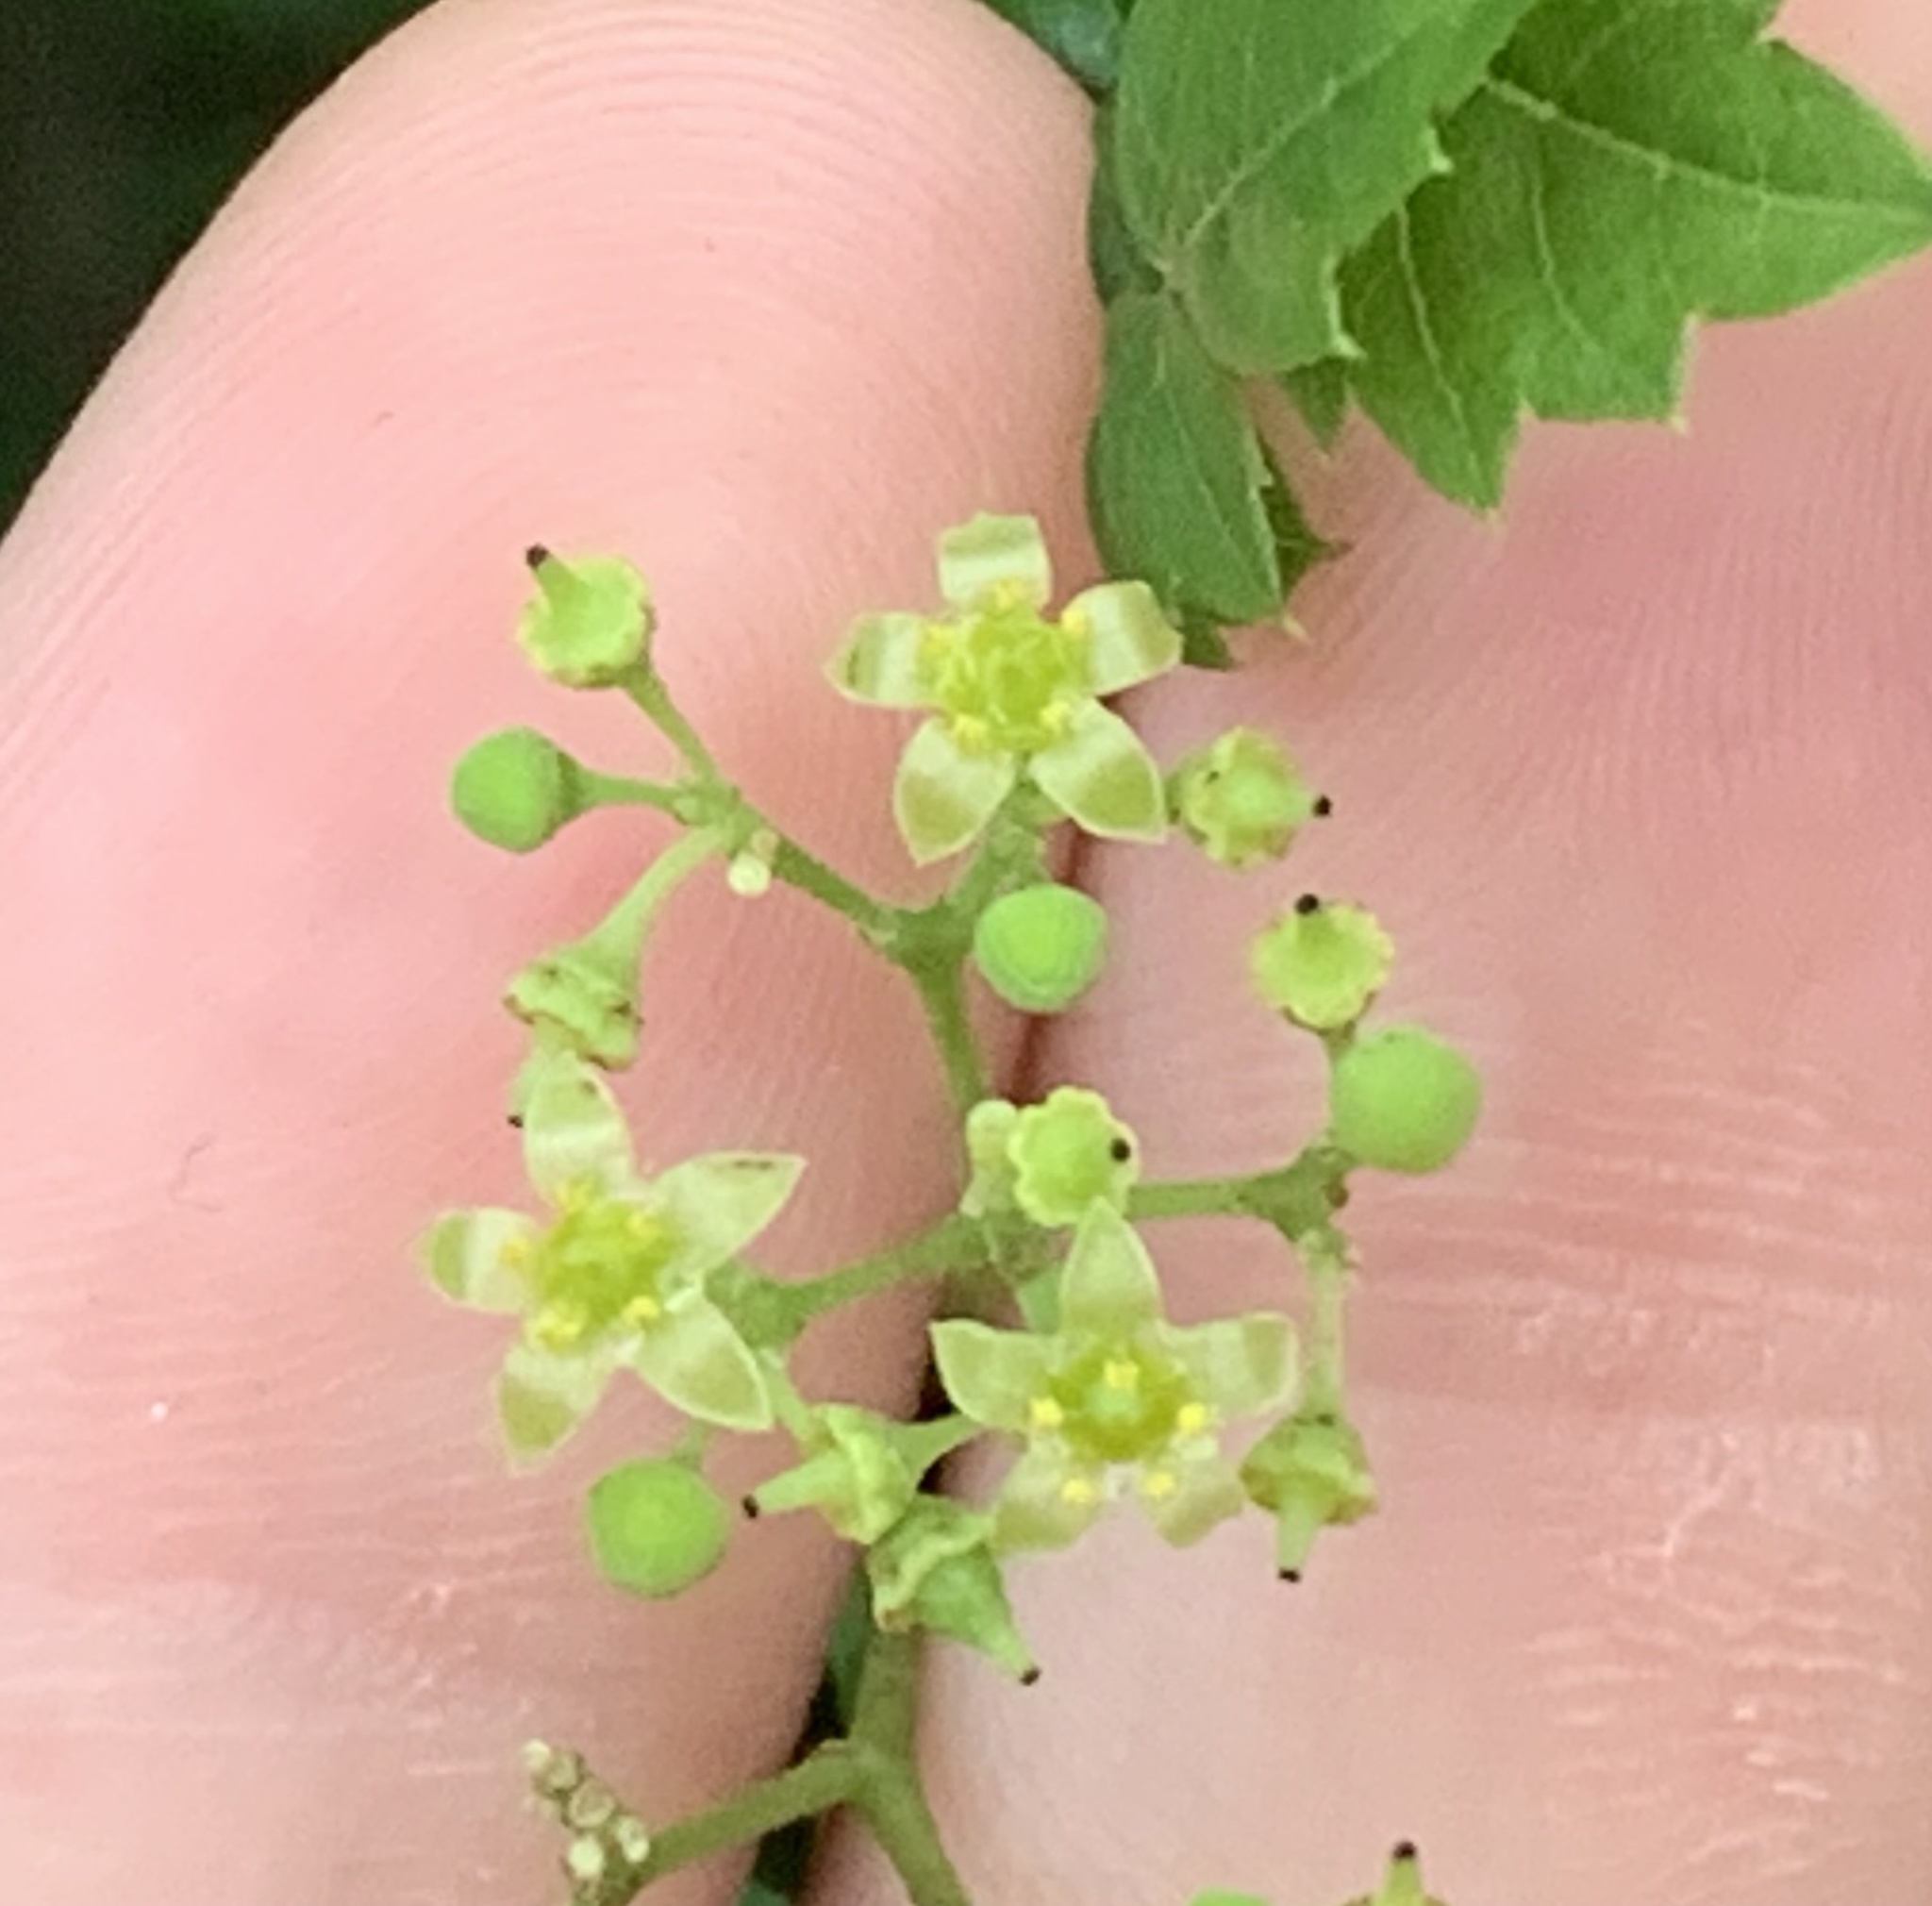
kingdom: Plantae
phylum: Tracheophyta
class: Magnoliopsida
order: Vitales
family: Vitaceae
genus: Nekemias
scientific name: Nekemias arborea
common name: Peppervine
